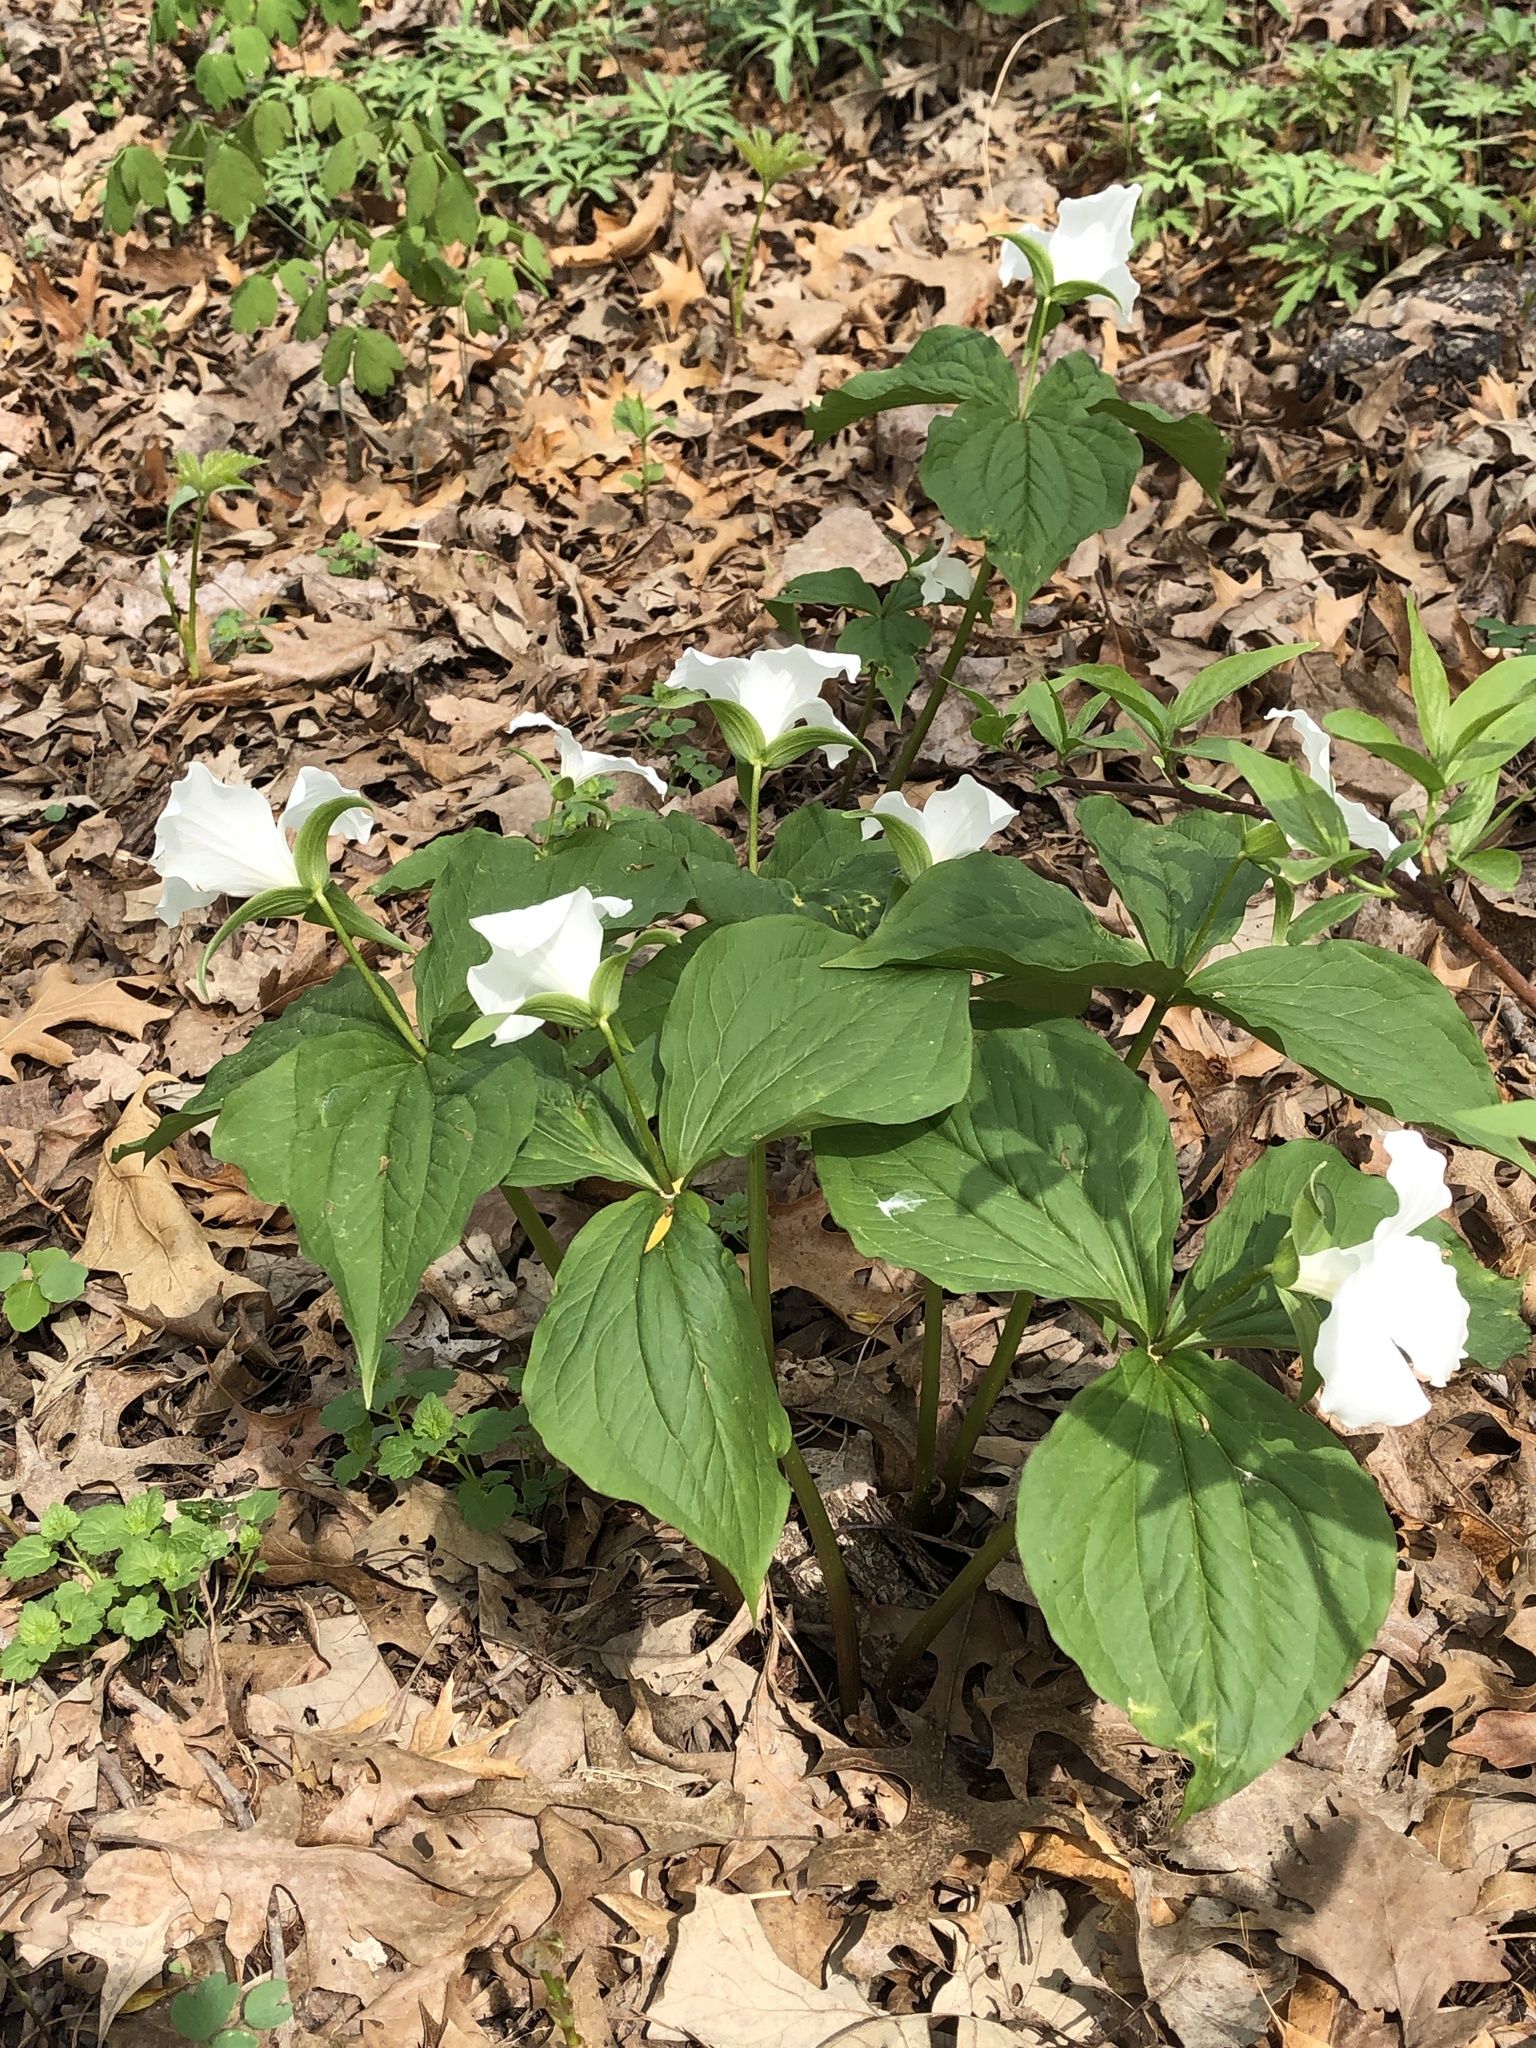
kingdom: Plantae
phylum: Tracheophyta
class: Liliopsida
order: Liliales
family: Melanthiaceae
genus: Trillium
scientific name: Trillium grandiflorum
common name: Great white trillium
